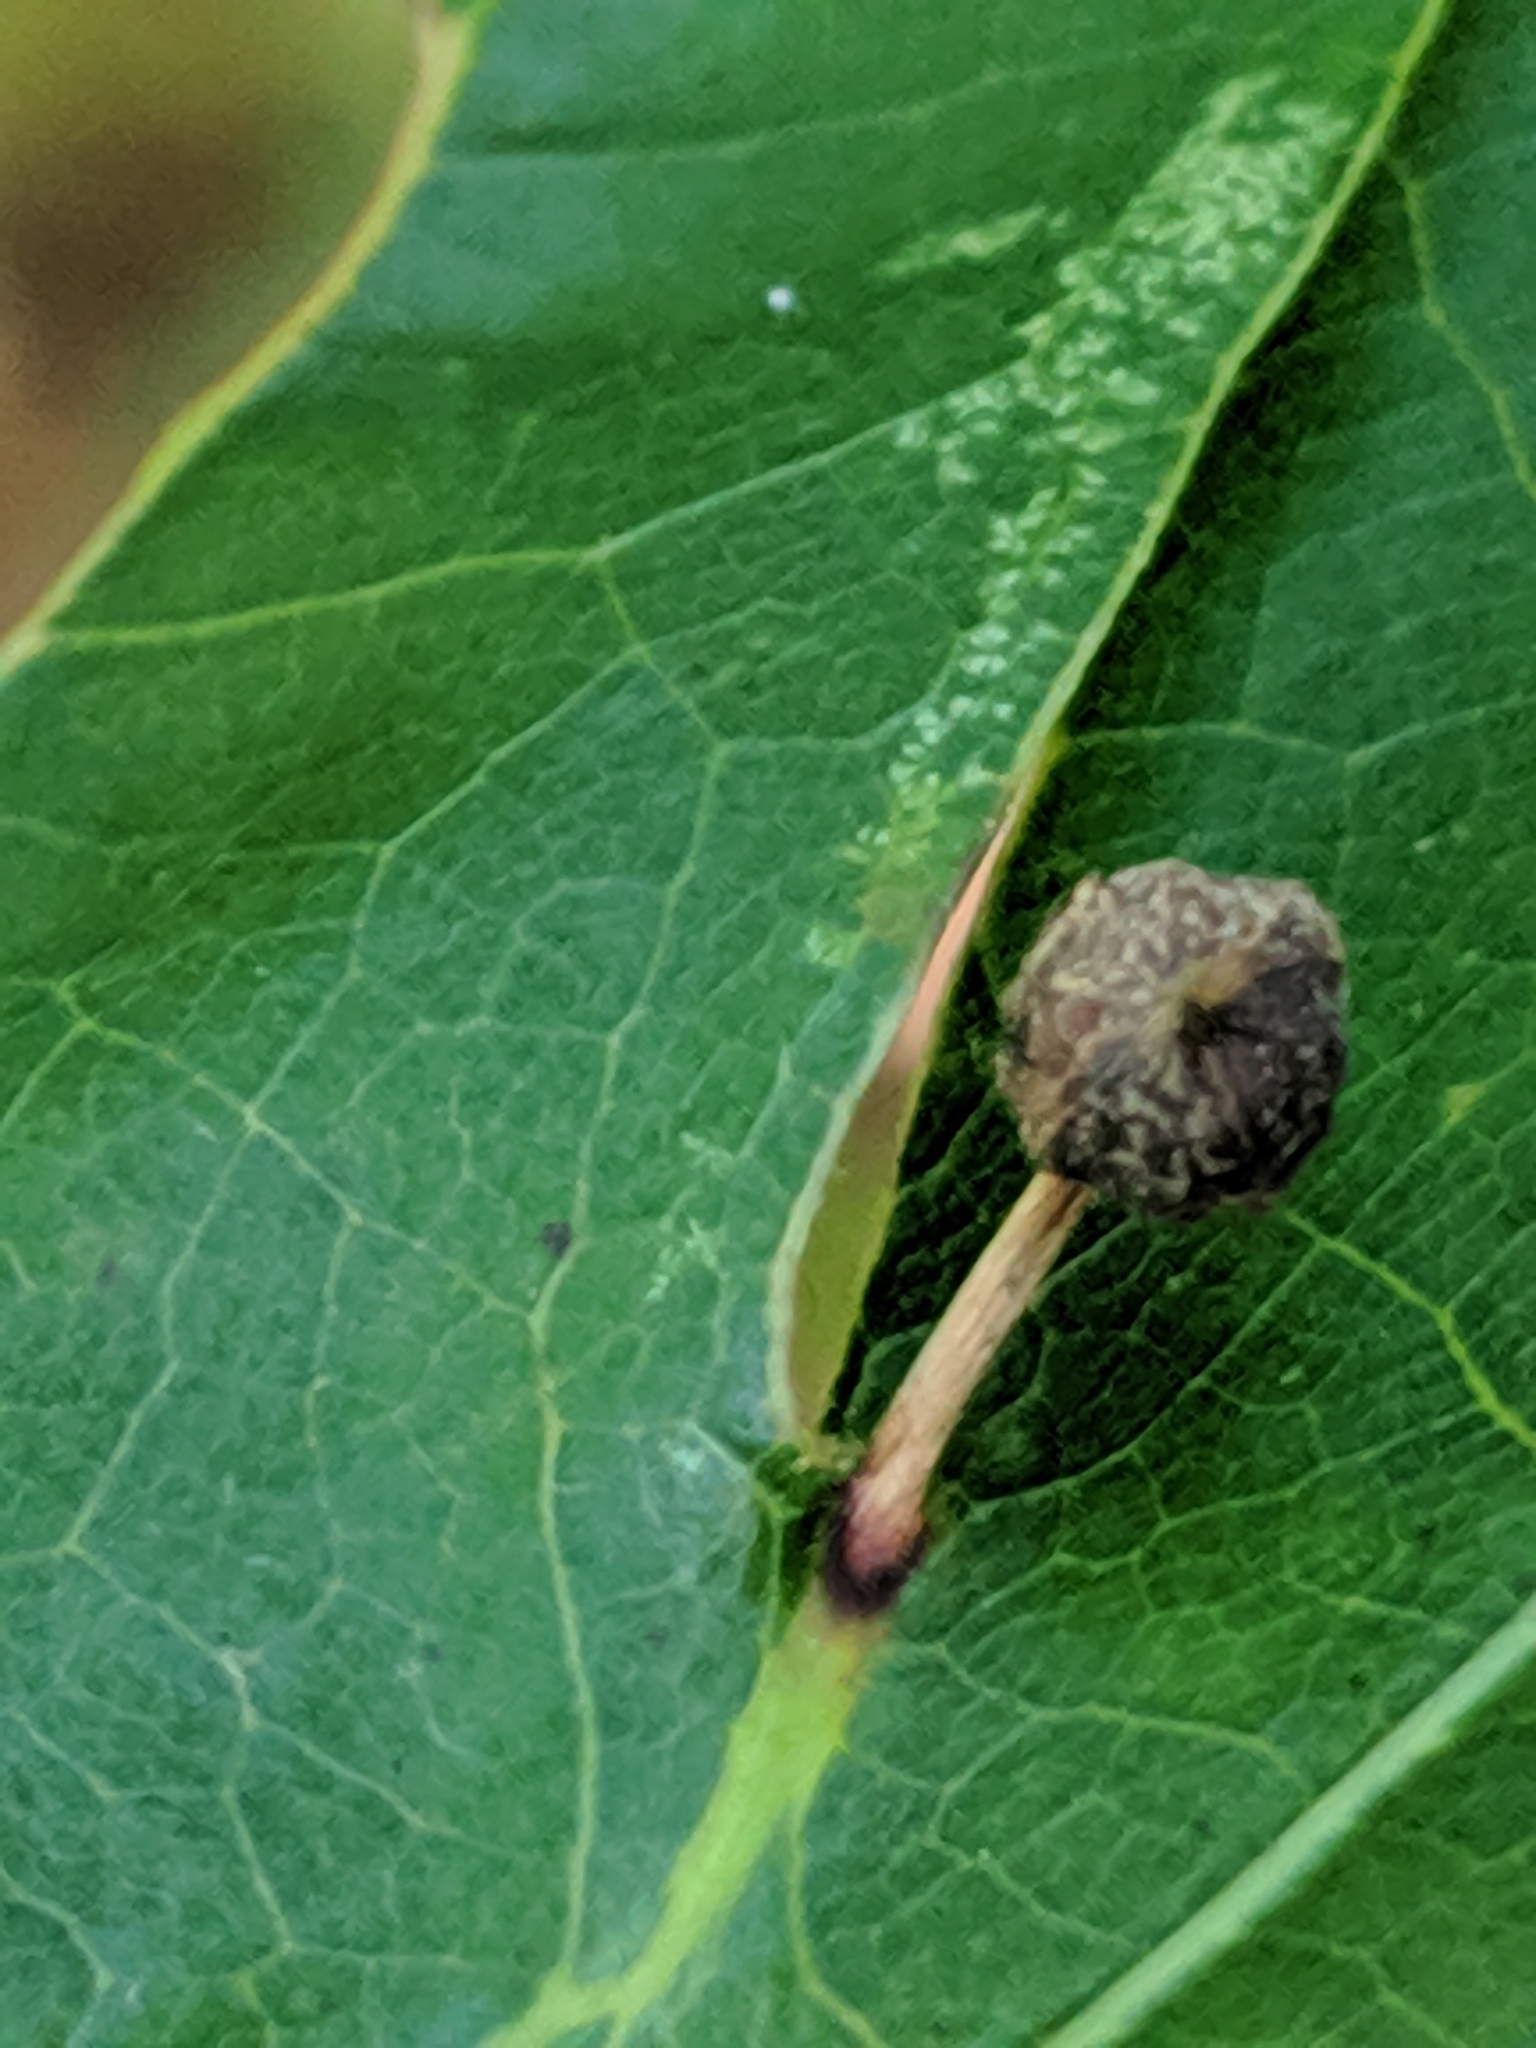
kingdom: Animalia
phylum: Arthropoda
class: Insecta
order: Hymenoptera
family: Cynipidae
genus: Callirhytis
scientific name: Callirhytis
